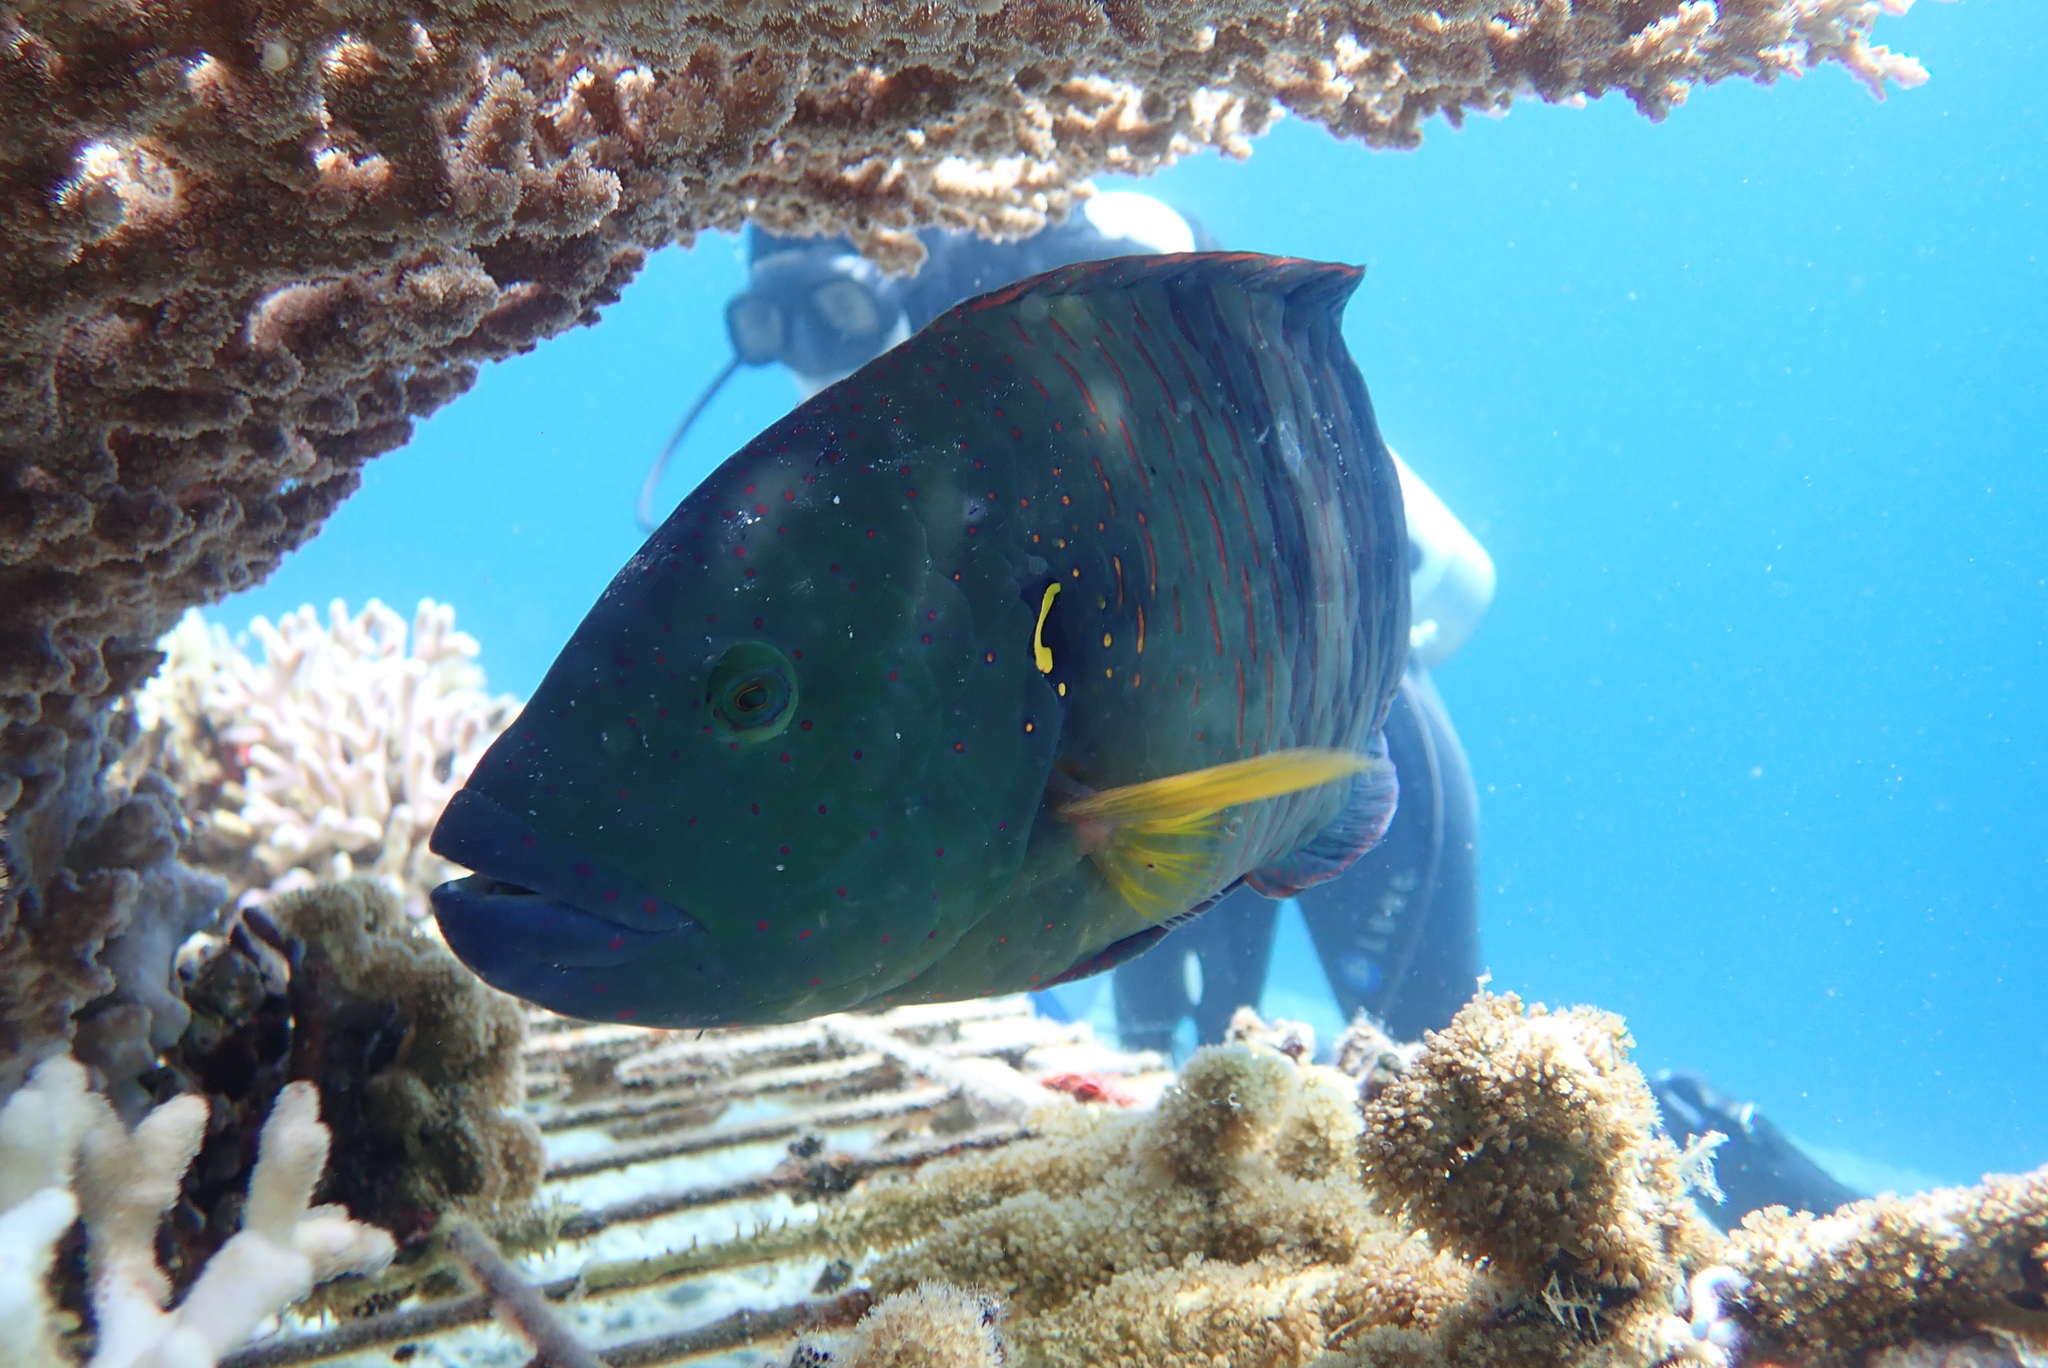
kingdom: Animalia
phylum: Chordata
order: Perciformes
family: Labridae
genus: Cheilinus
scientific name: Cheilinus lunulatus
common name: Broomtail wrasse
